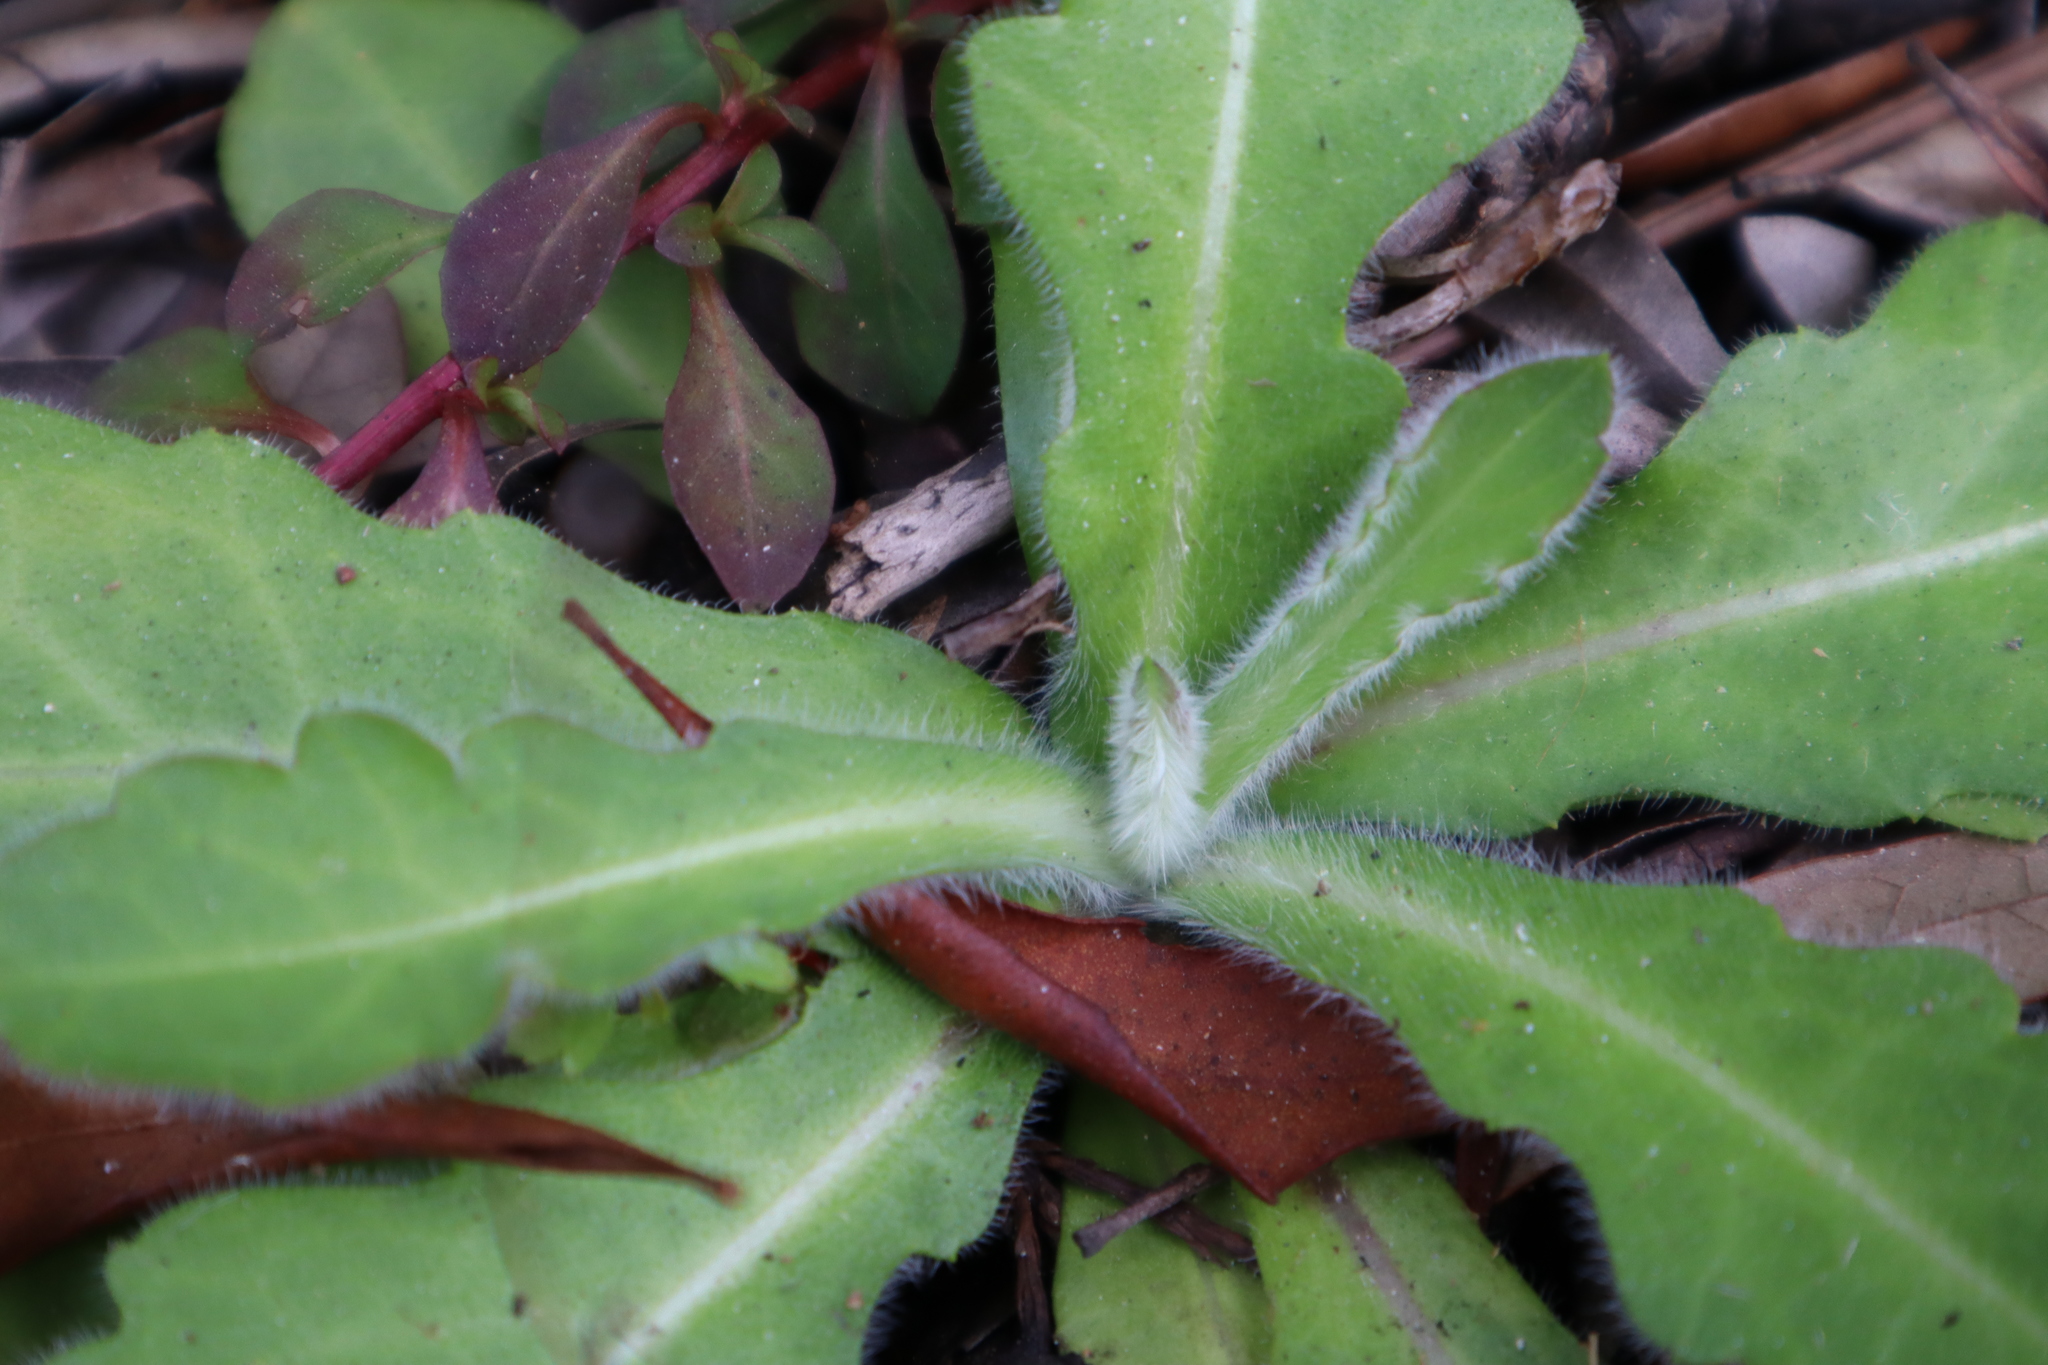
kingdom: Plantae
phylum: Tracheophyta
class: Magnoliopsida
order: Asterales
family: Asteraceae
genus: Erigeron
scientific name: Erigeron quercifolius
